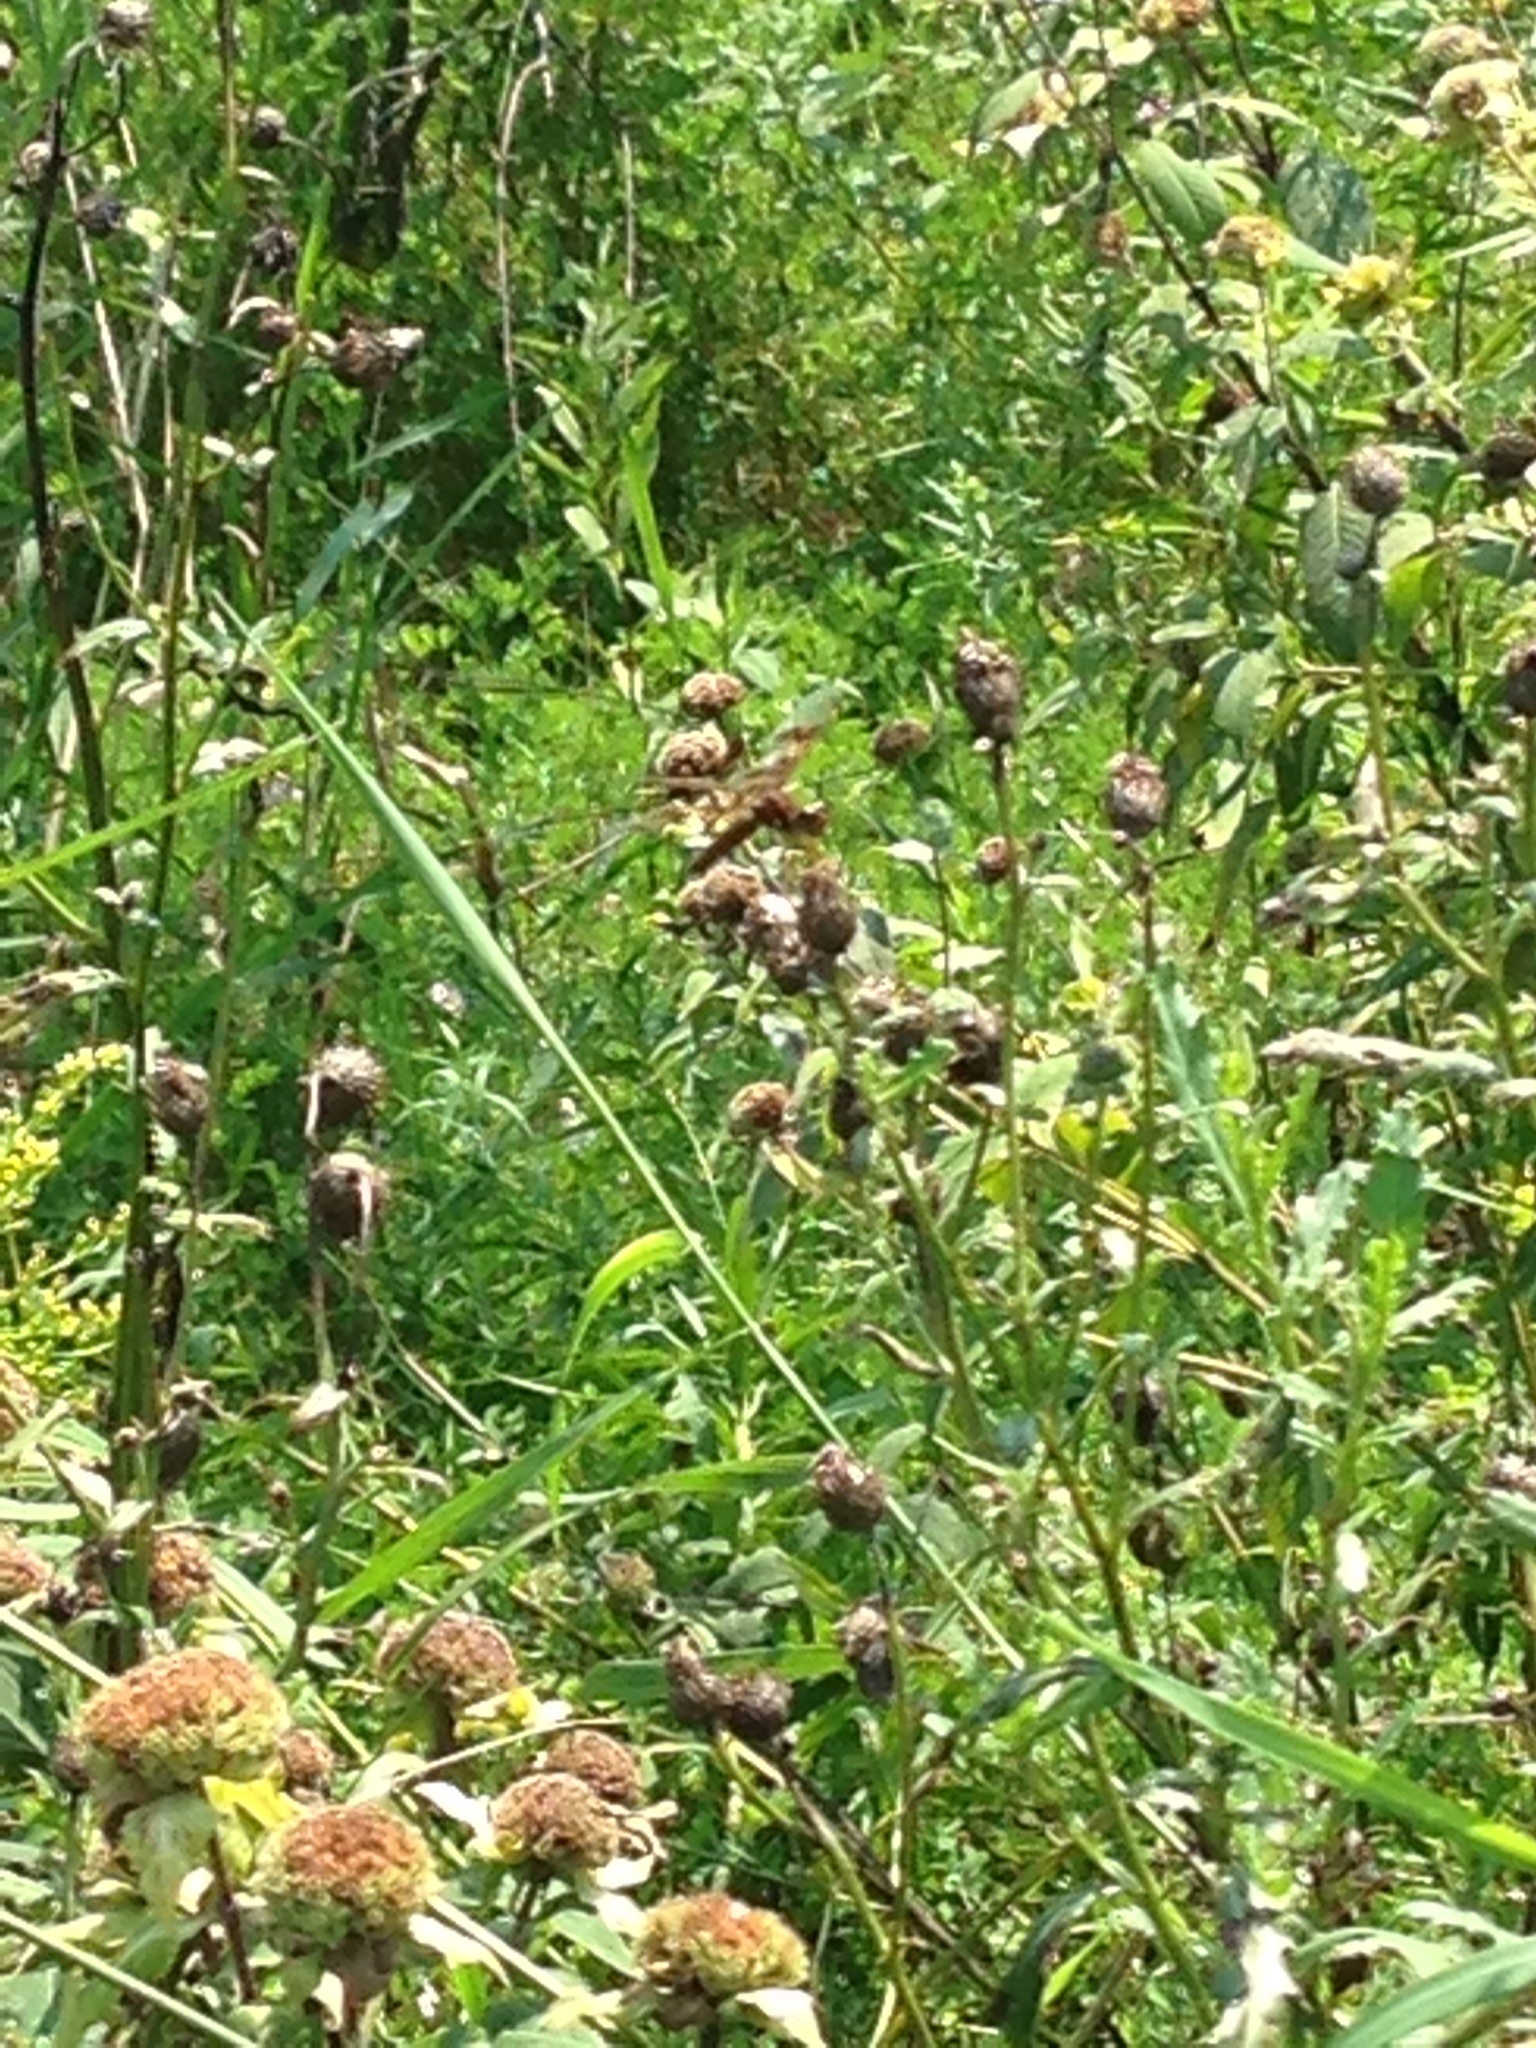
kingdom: Animalia
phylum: Arthropoda
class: Insecta
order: Odonata
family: Libellulidae
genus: Perithemis
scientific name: Perithemis tenera
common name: Eastern amberwing
